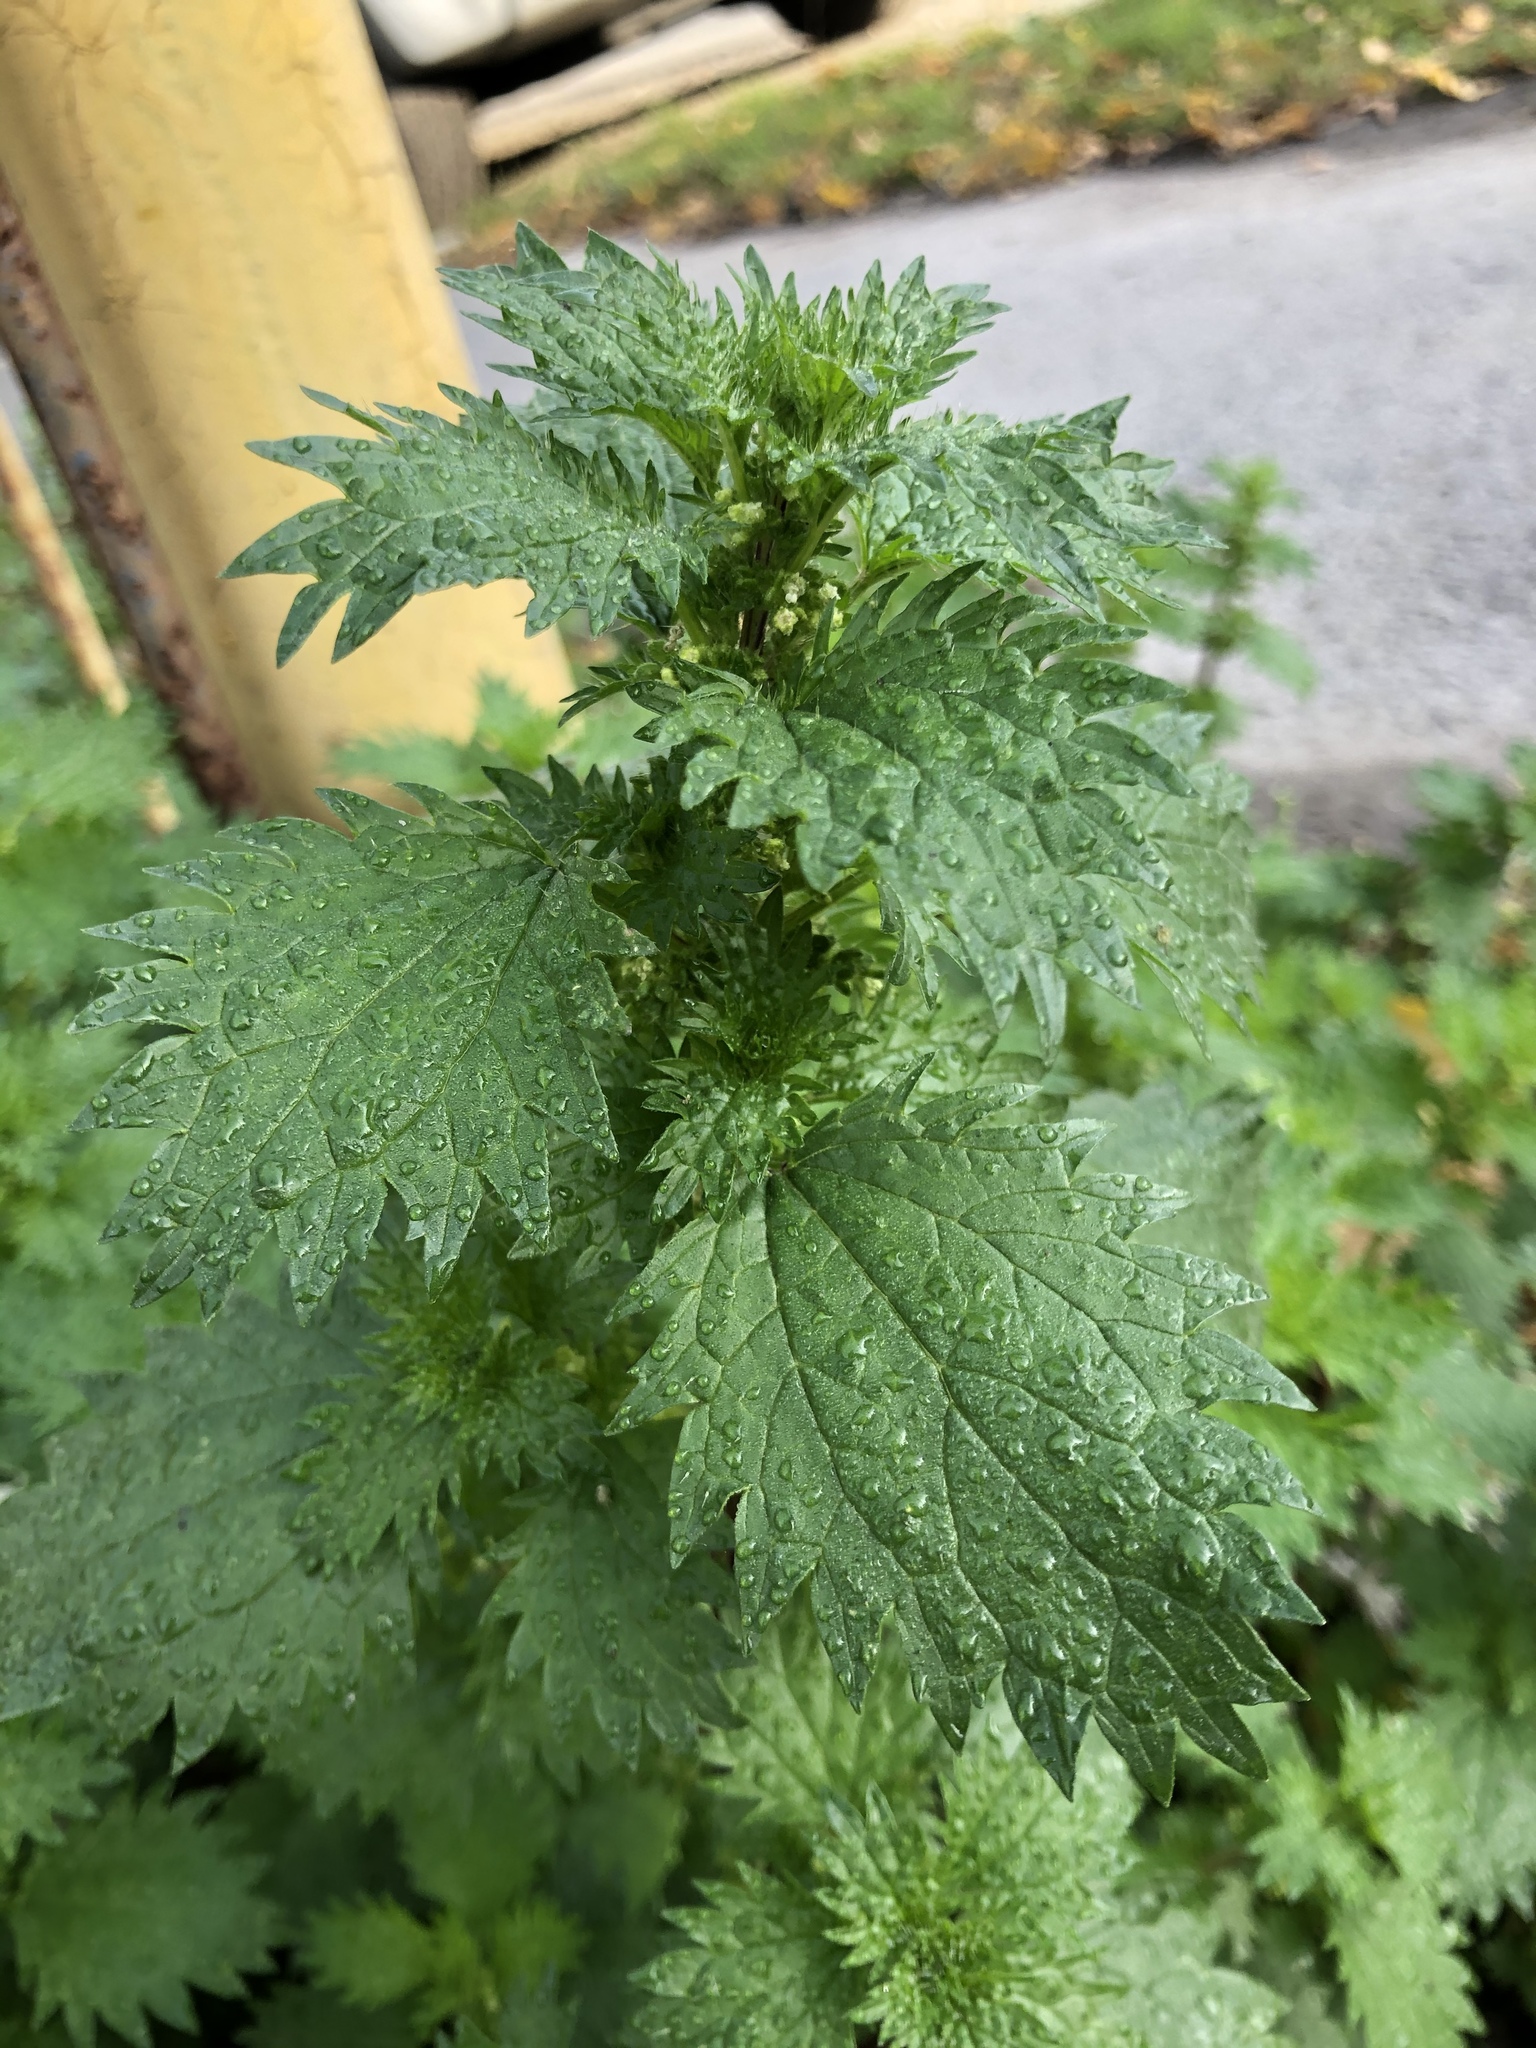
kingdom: Plantae
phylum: Tracheophyta
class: Magnoliopsida
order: Rosales
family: Urticaceae
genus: Urtica
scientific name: Urtica urens
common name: Dwarf nettle
